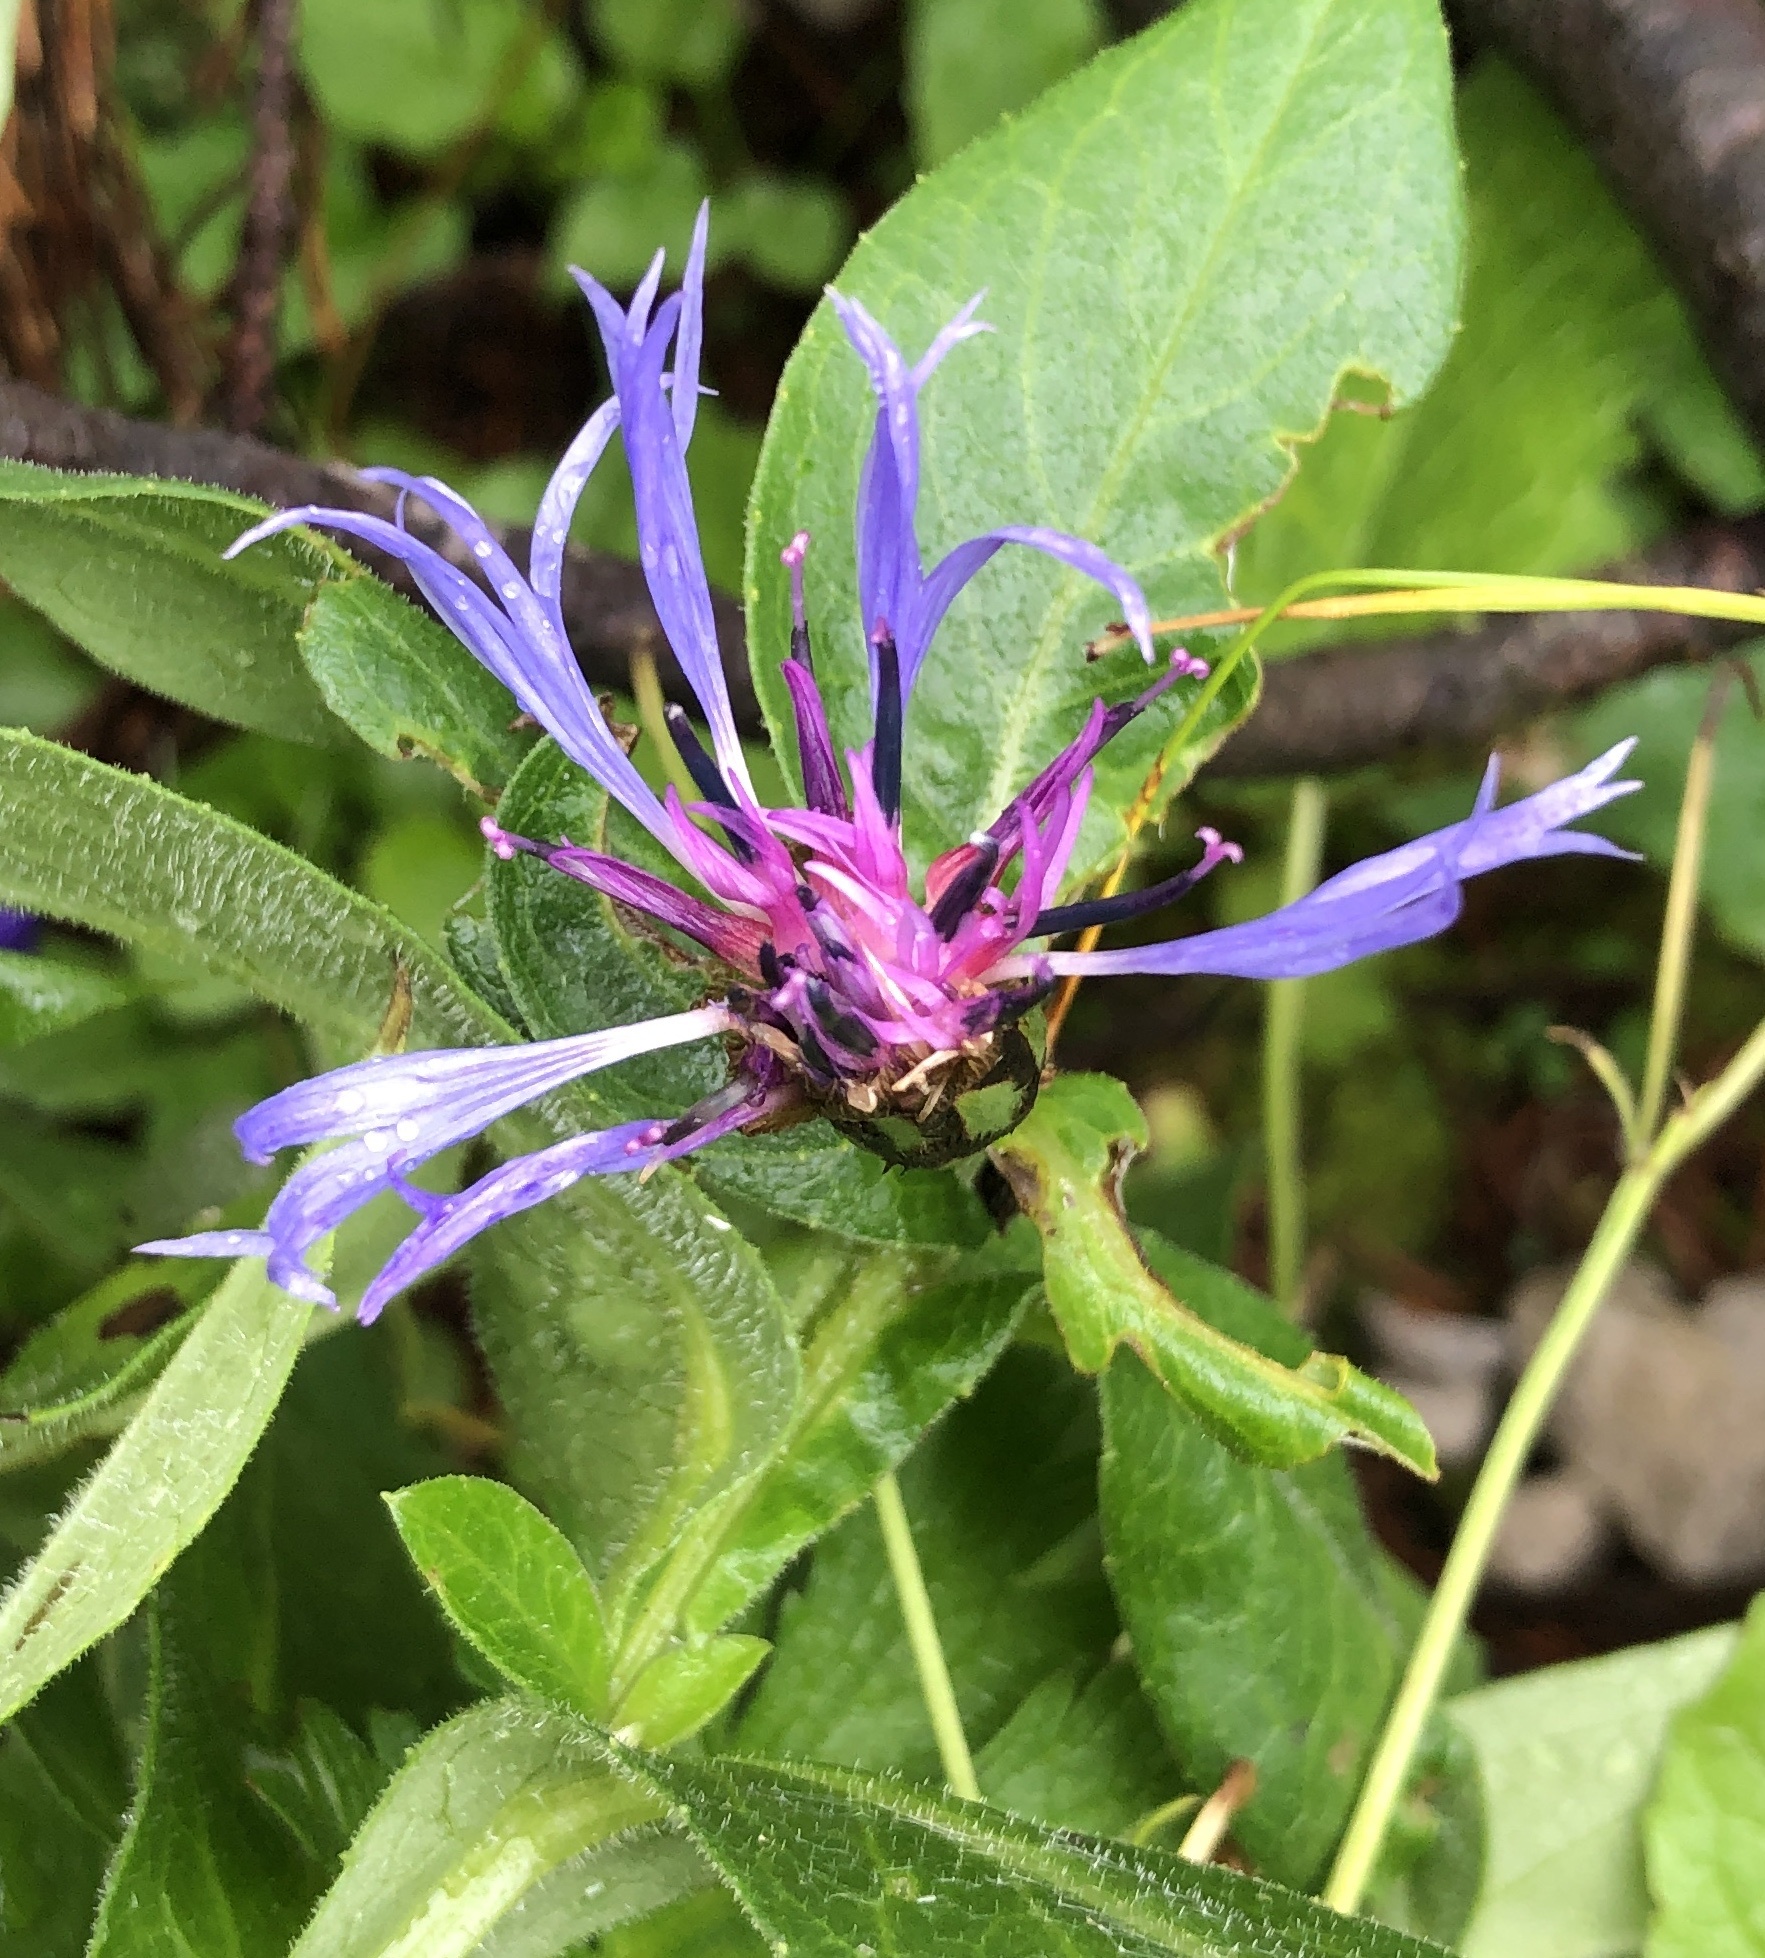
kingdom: Plantae
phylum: Tracheophyta
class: Magnoliopsida
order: Asterales
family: Asteraceae
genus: Centaurea
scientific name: Centaurea montana
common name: Perennial cornflower
